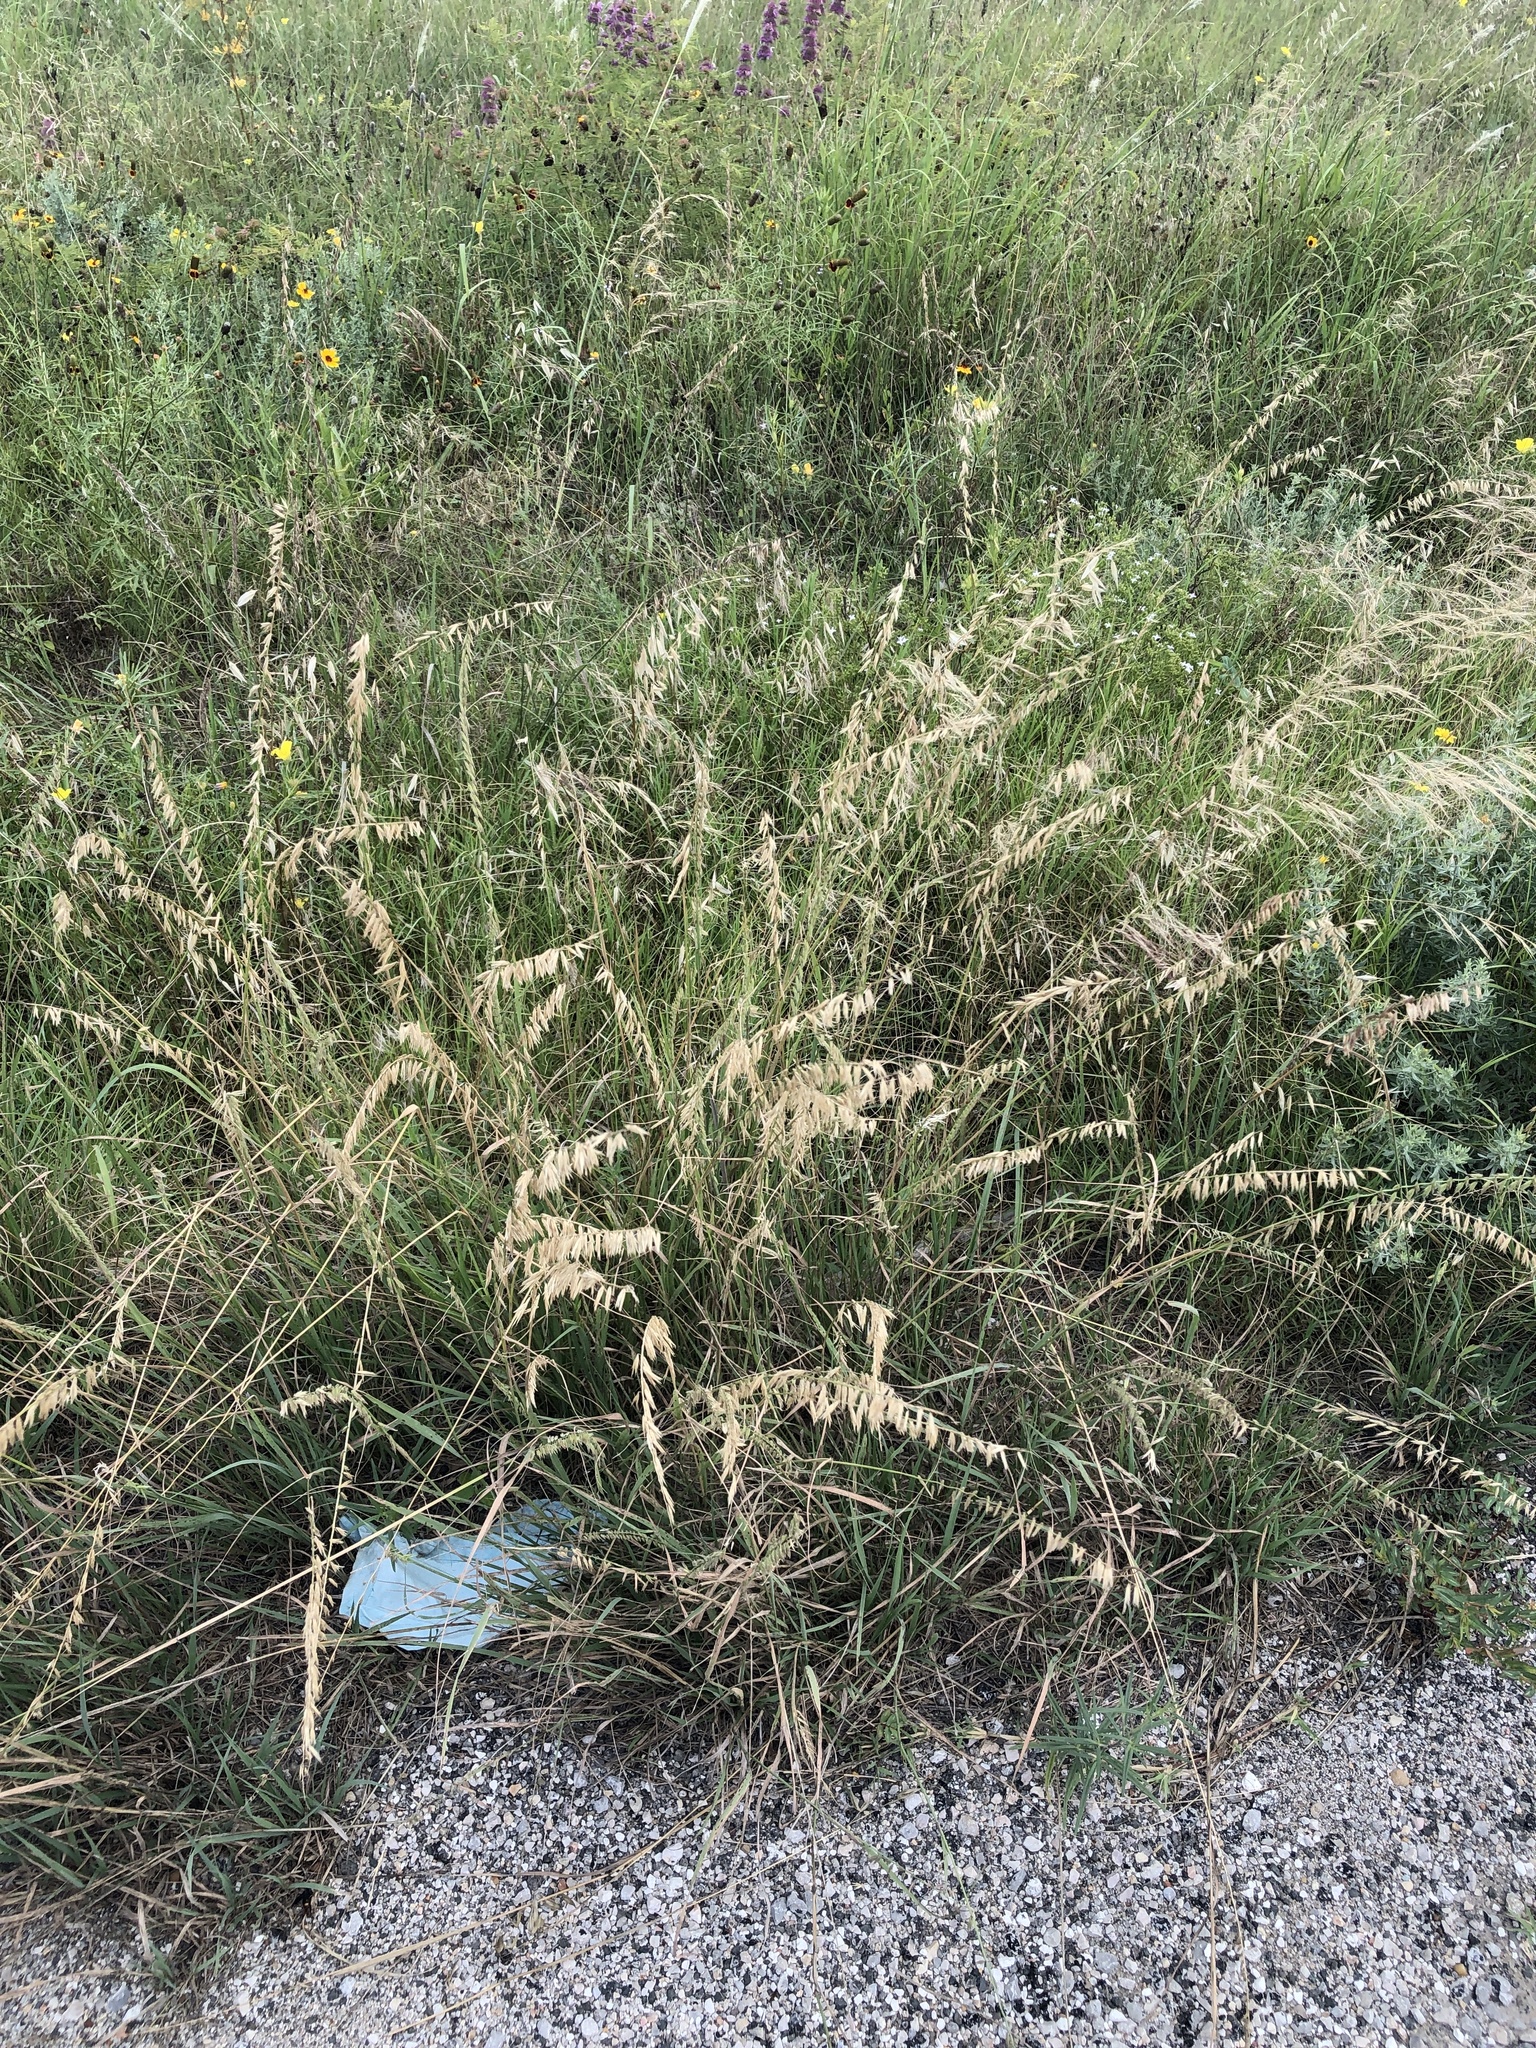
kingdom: Plantae
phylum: Tracheophyta
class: Liliopsida
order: Poales
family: Poaceae
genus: Bouteloua
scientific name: Bouteloua curtipendula
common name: Side-oats grama
